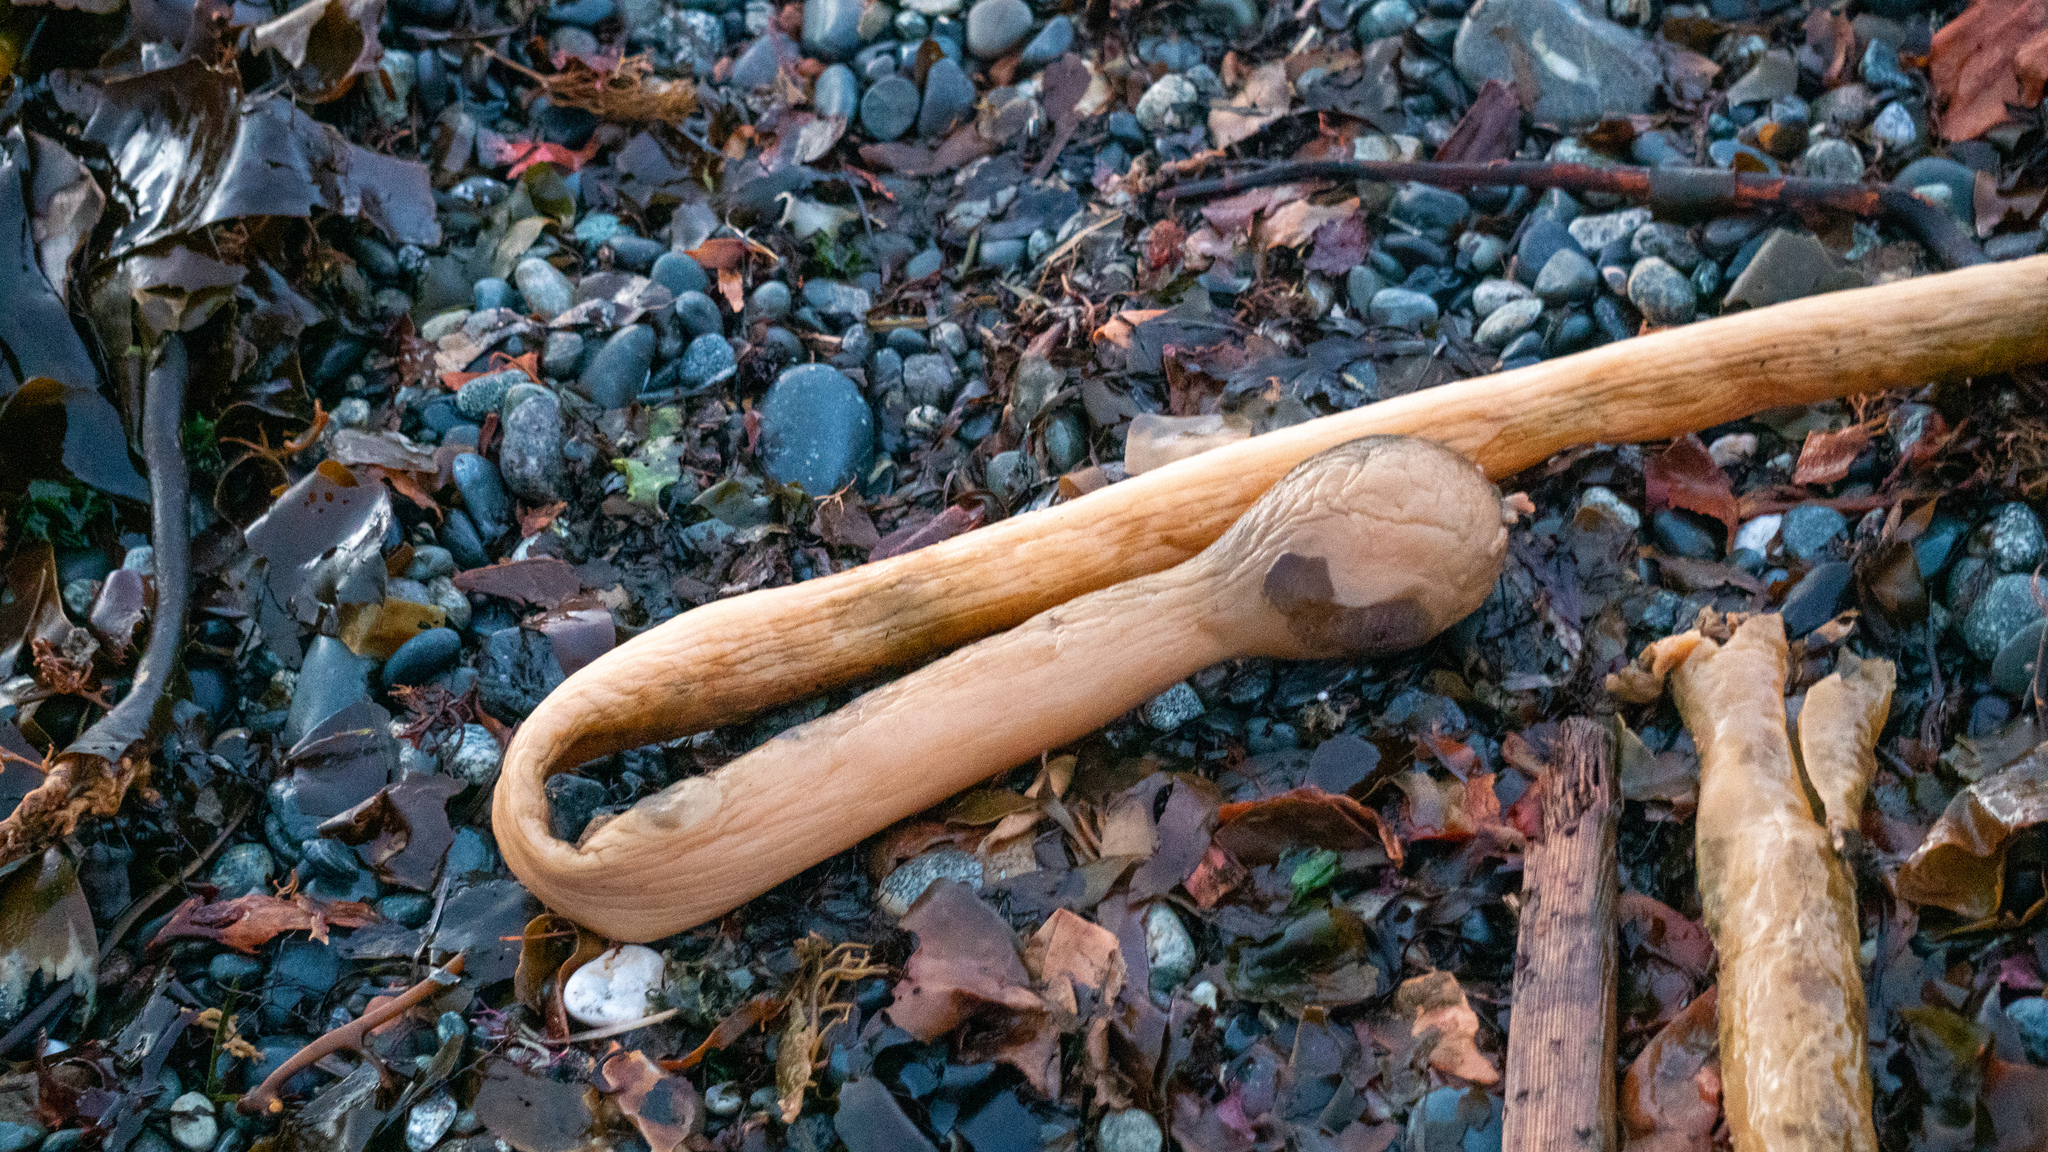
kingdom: Chromista
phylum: Ochrophyta
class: Phaeophyceae
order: Laminariales
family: Laminariaceae
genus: Nereocystis
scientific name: Nereocystis luetkeana
